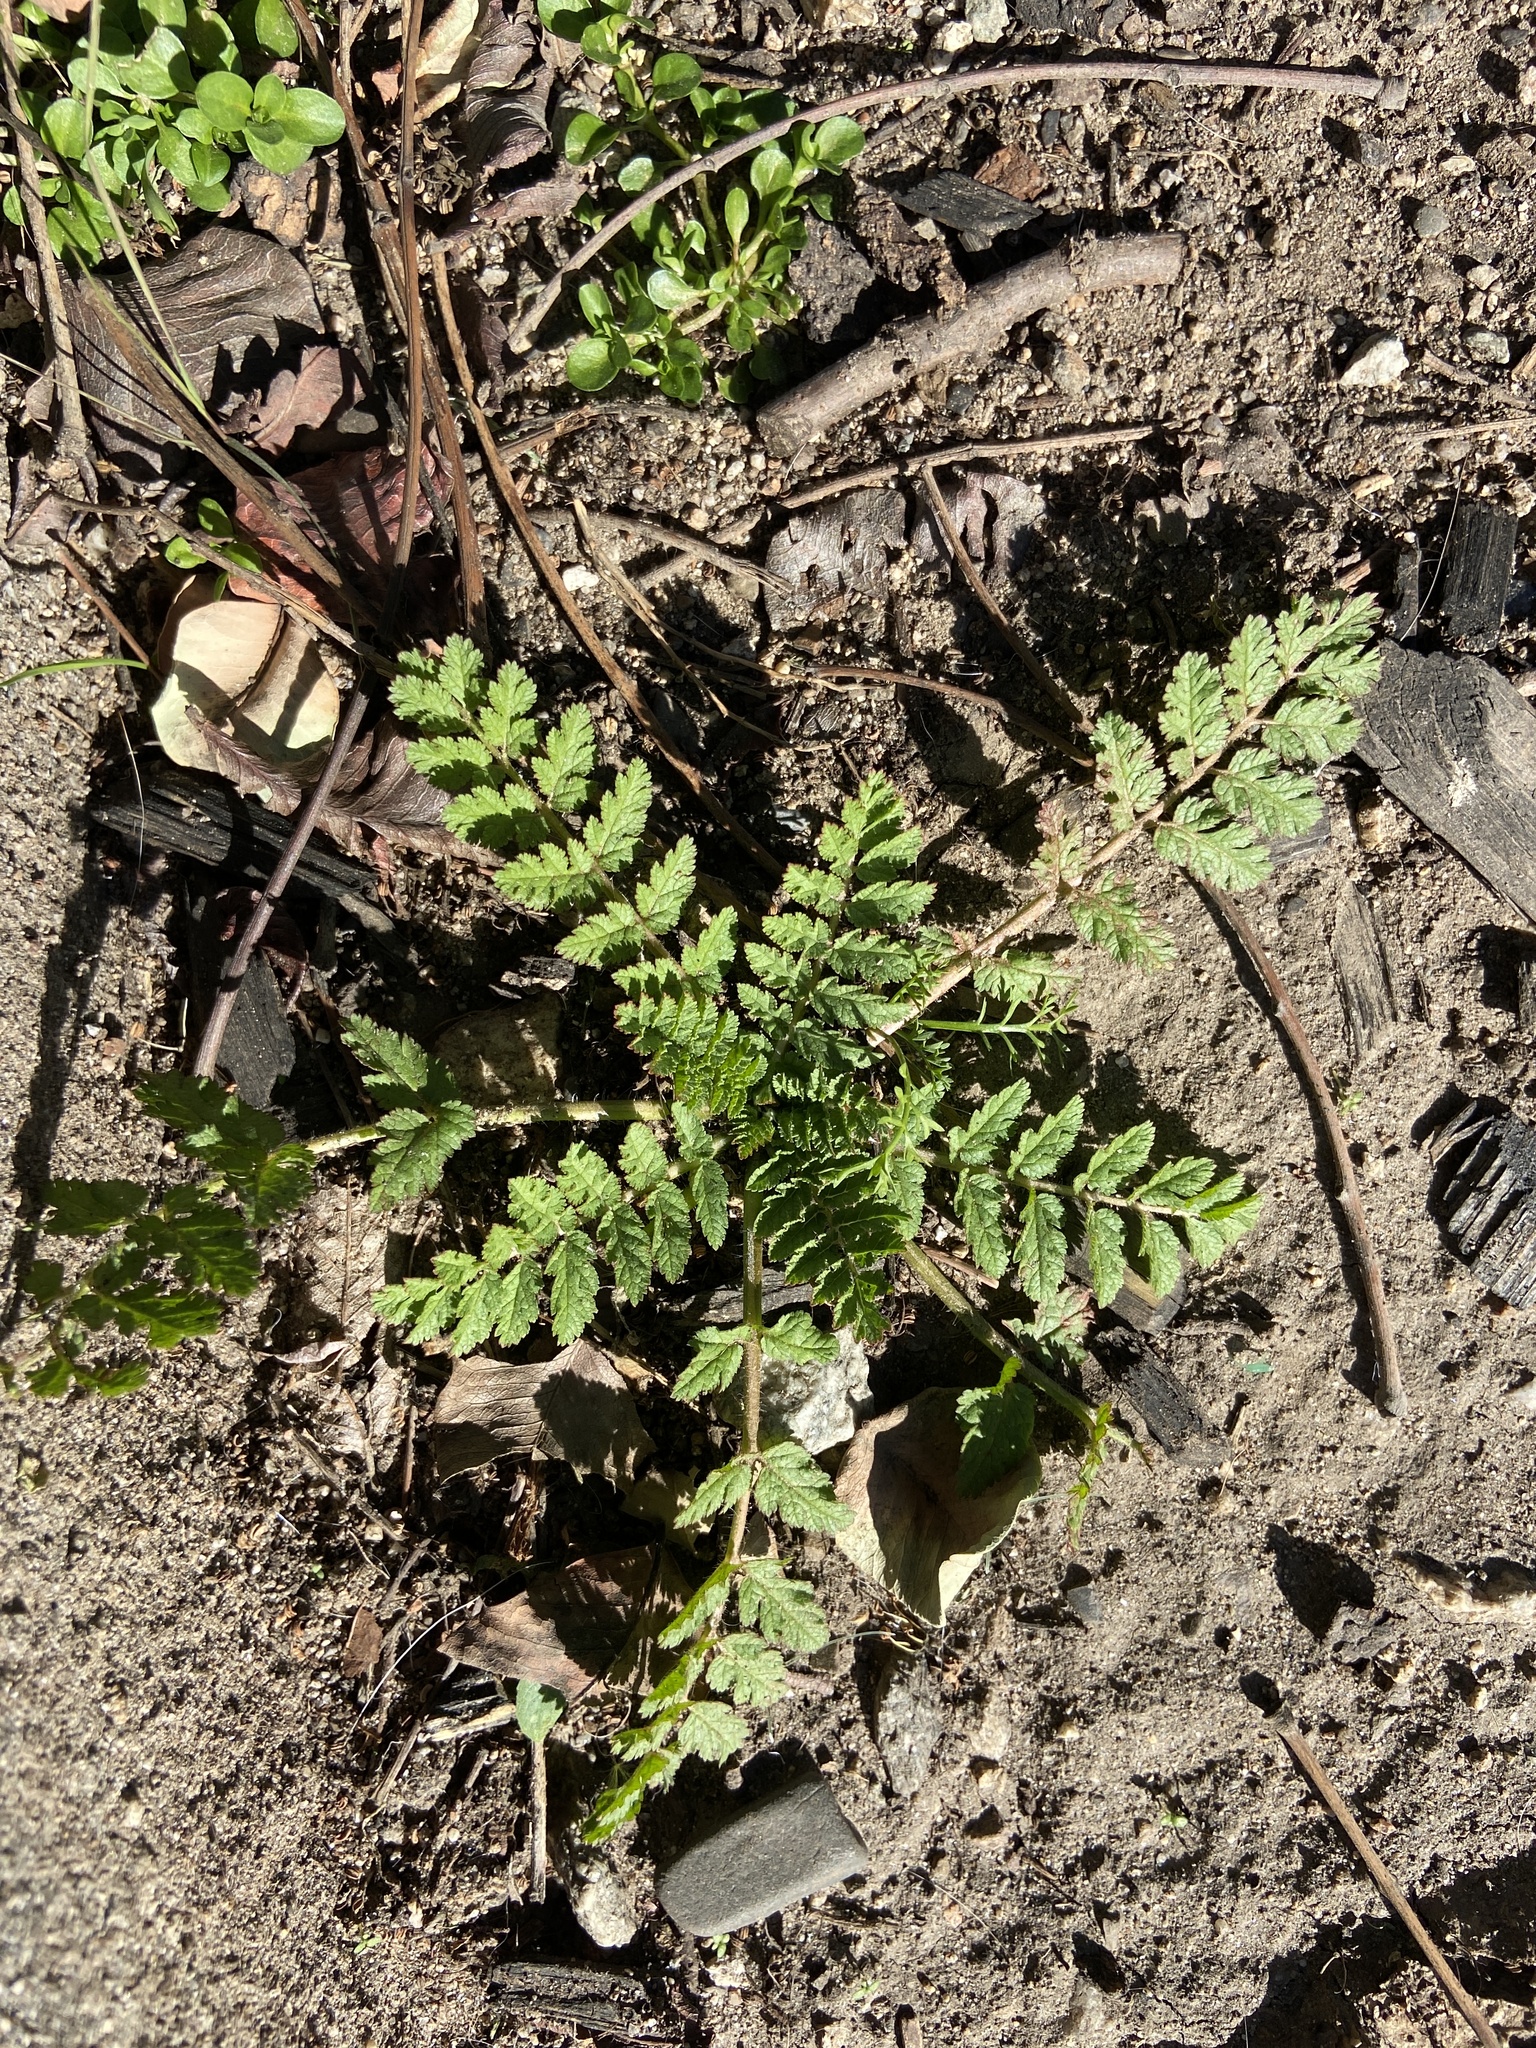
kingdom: Plantae
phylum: Tracheophyta
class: Magnoliopsida
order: Geraniales
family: Geraniaceae
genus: Erodium
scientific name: Erodium moschatum
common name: Musk stork's-bill
